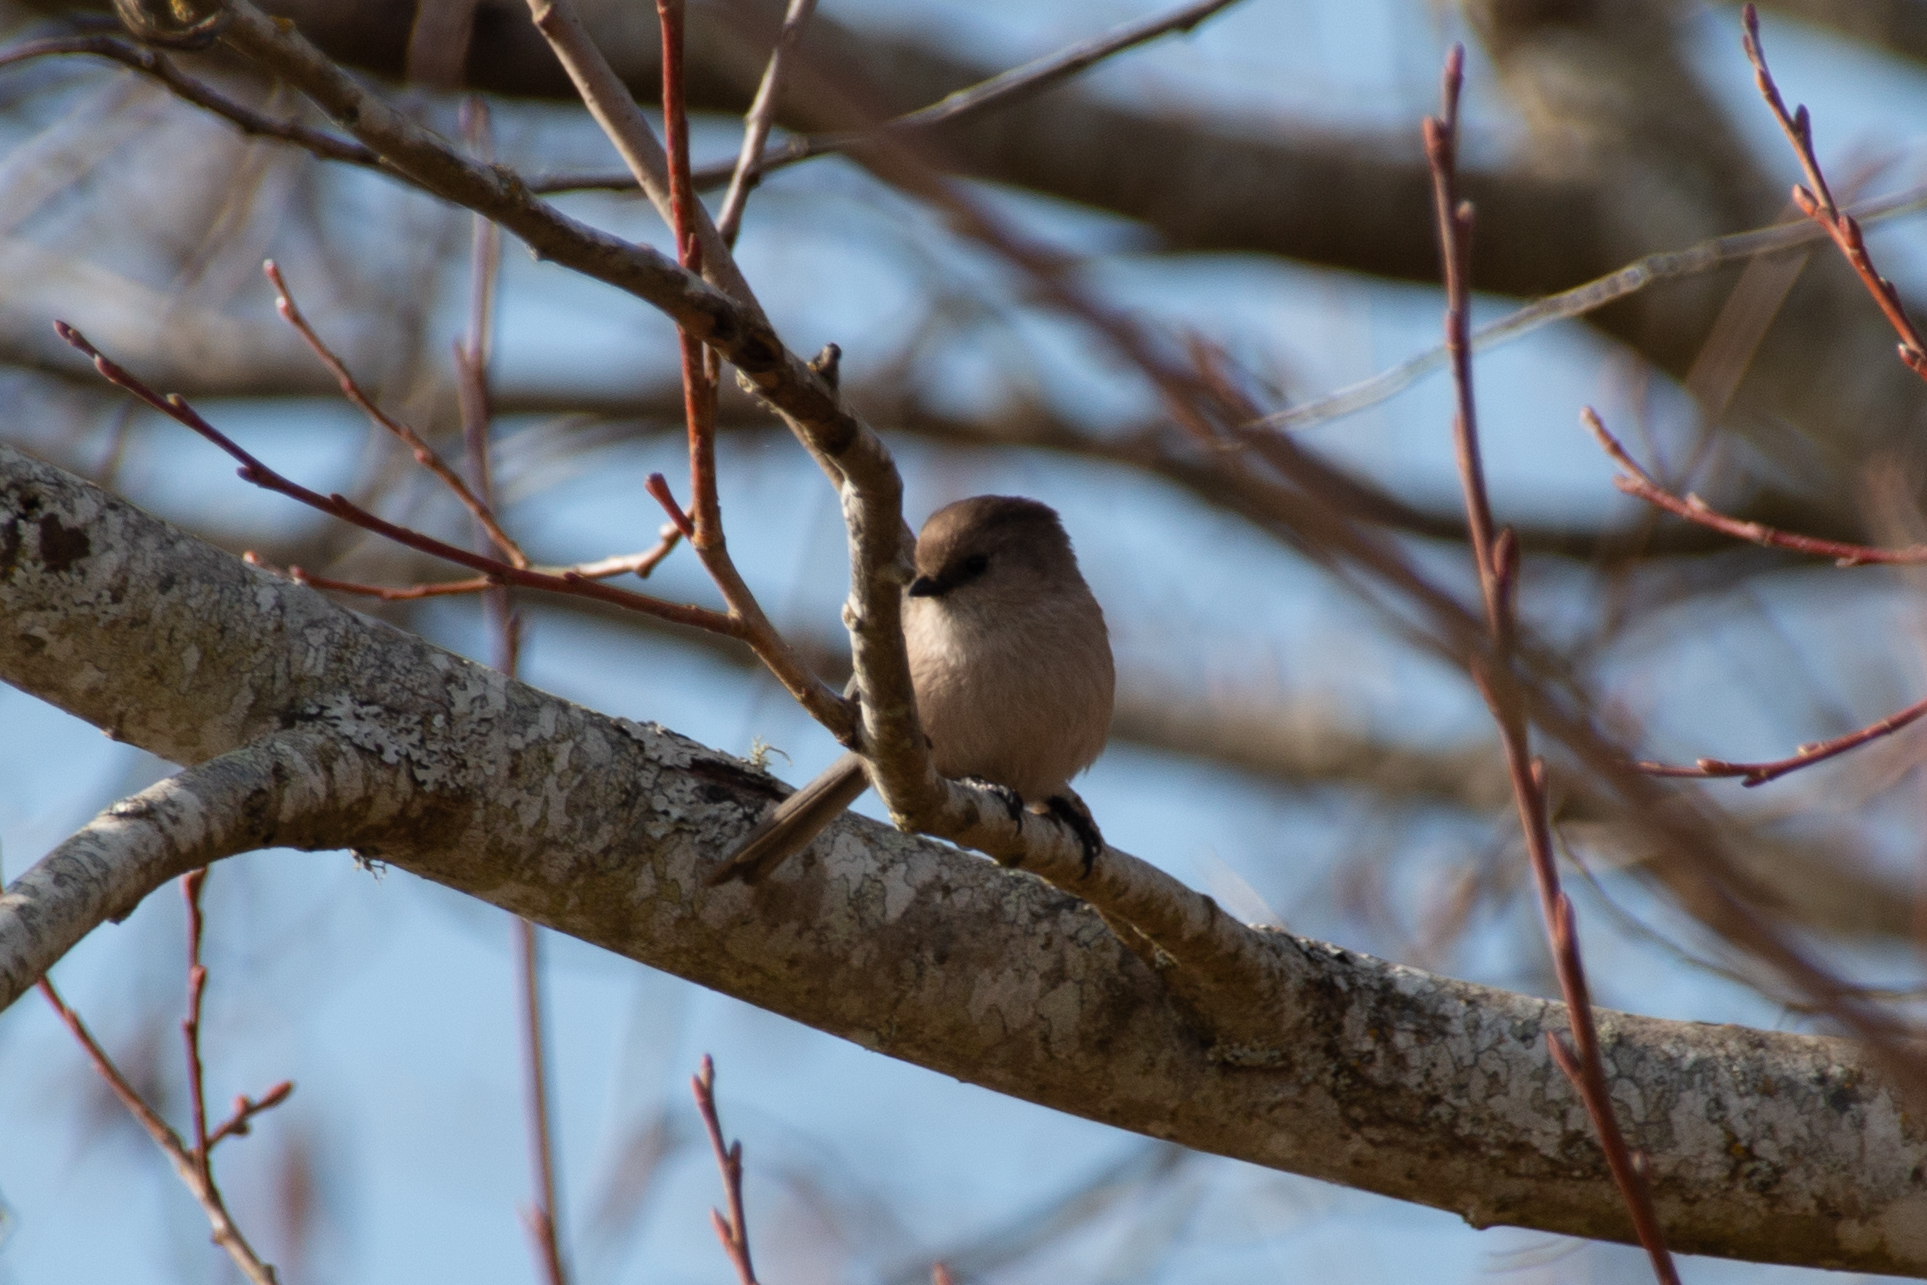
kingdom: Animalia
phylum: Chordata
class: Aves
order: Passeriformes
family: Aegithalidae
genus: Psaltriparus
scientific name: Psaltriparus minimus
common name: American bushtit
